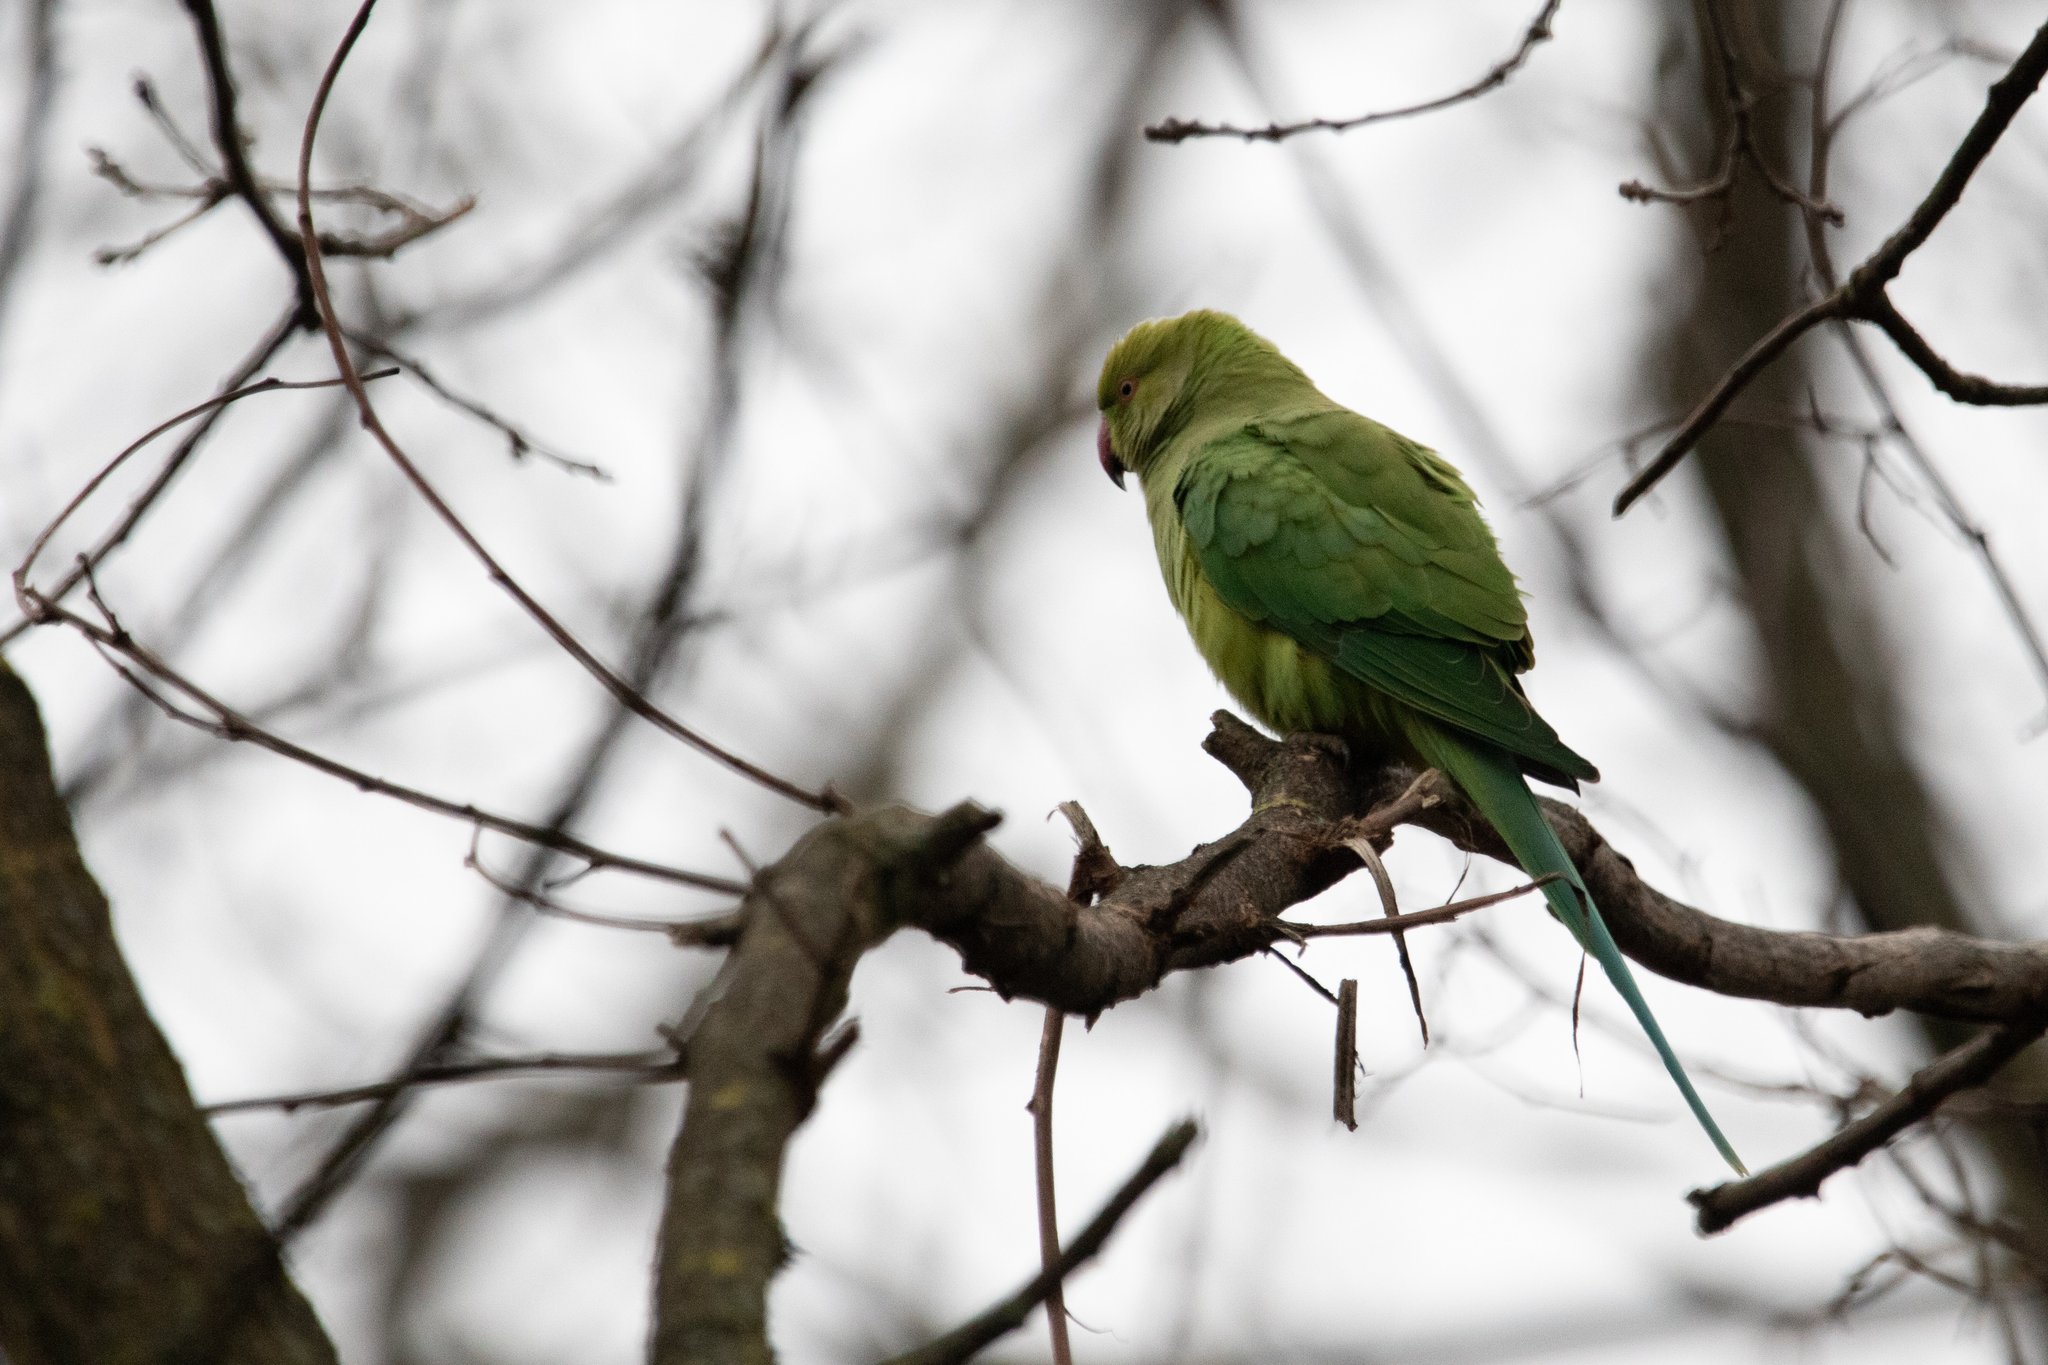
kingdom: Animalia
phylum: Chordata
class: Aves
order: Psittaciformes
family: Psittacidae
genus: Psittacula
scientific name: Psittacula krameri
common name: Rose-ringed parakeet
